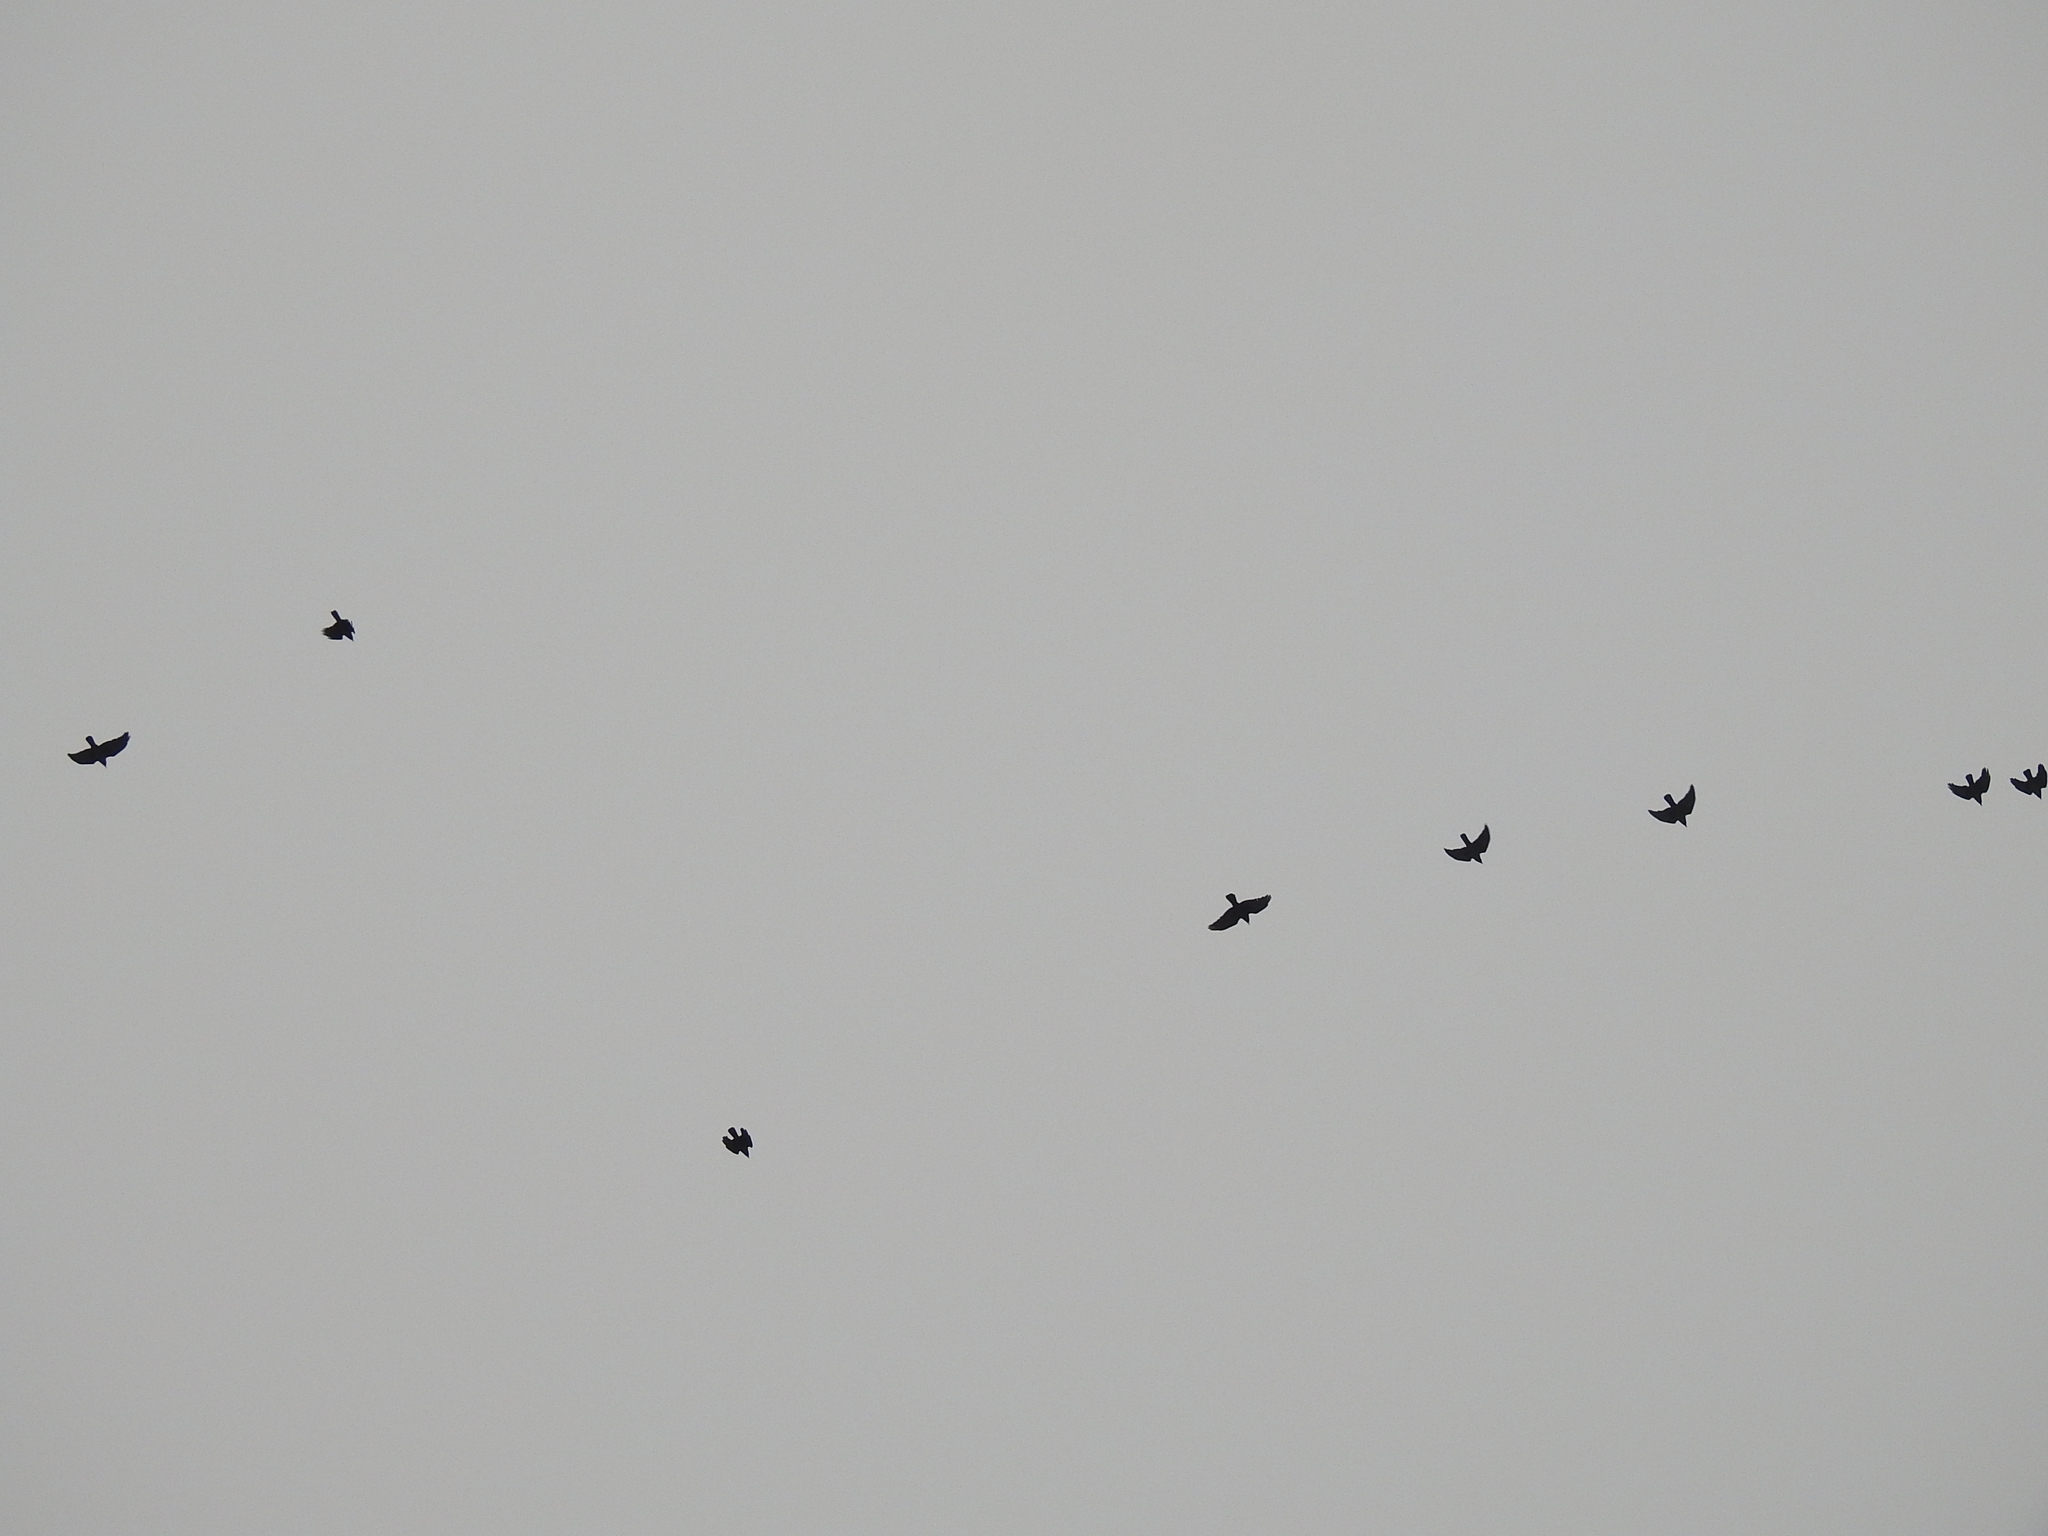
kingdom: Animalia
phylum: Chordata
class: Aves
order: Passeriformes
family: Corvidae
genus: Coloeus
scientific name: Coloeus monedula
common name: Western jackdaw
